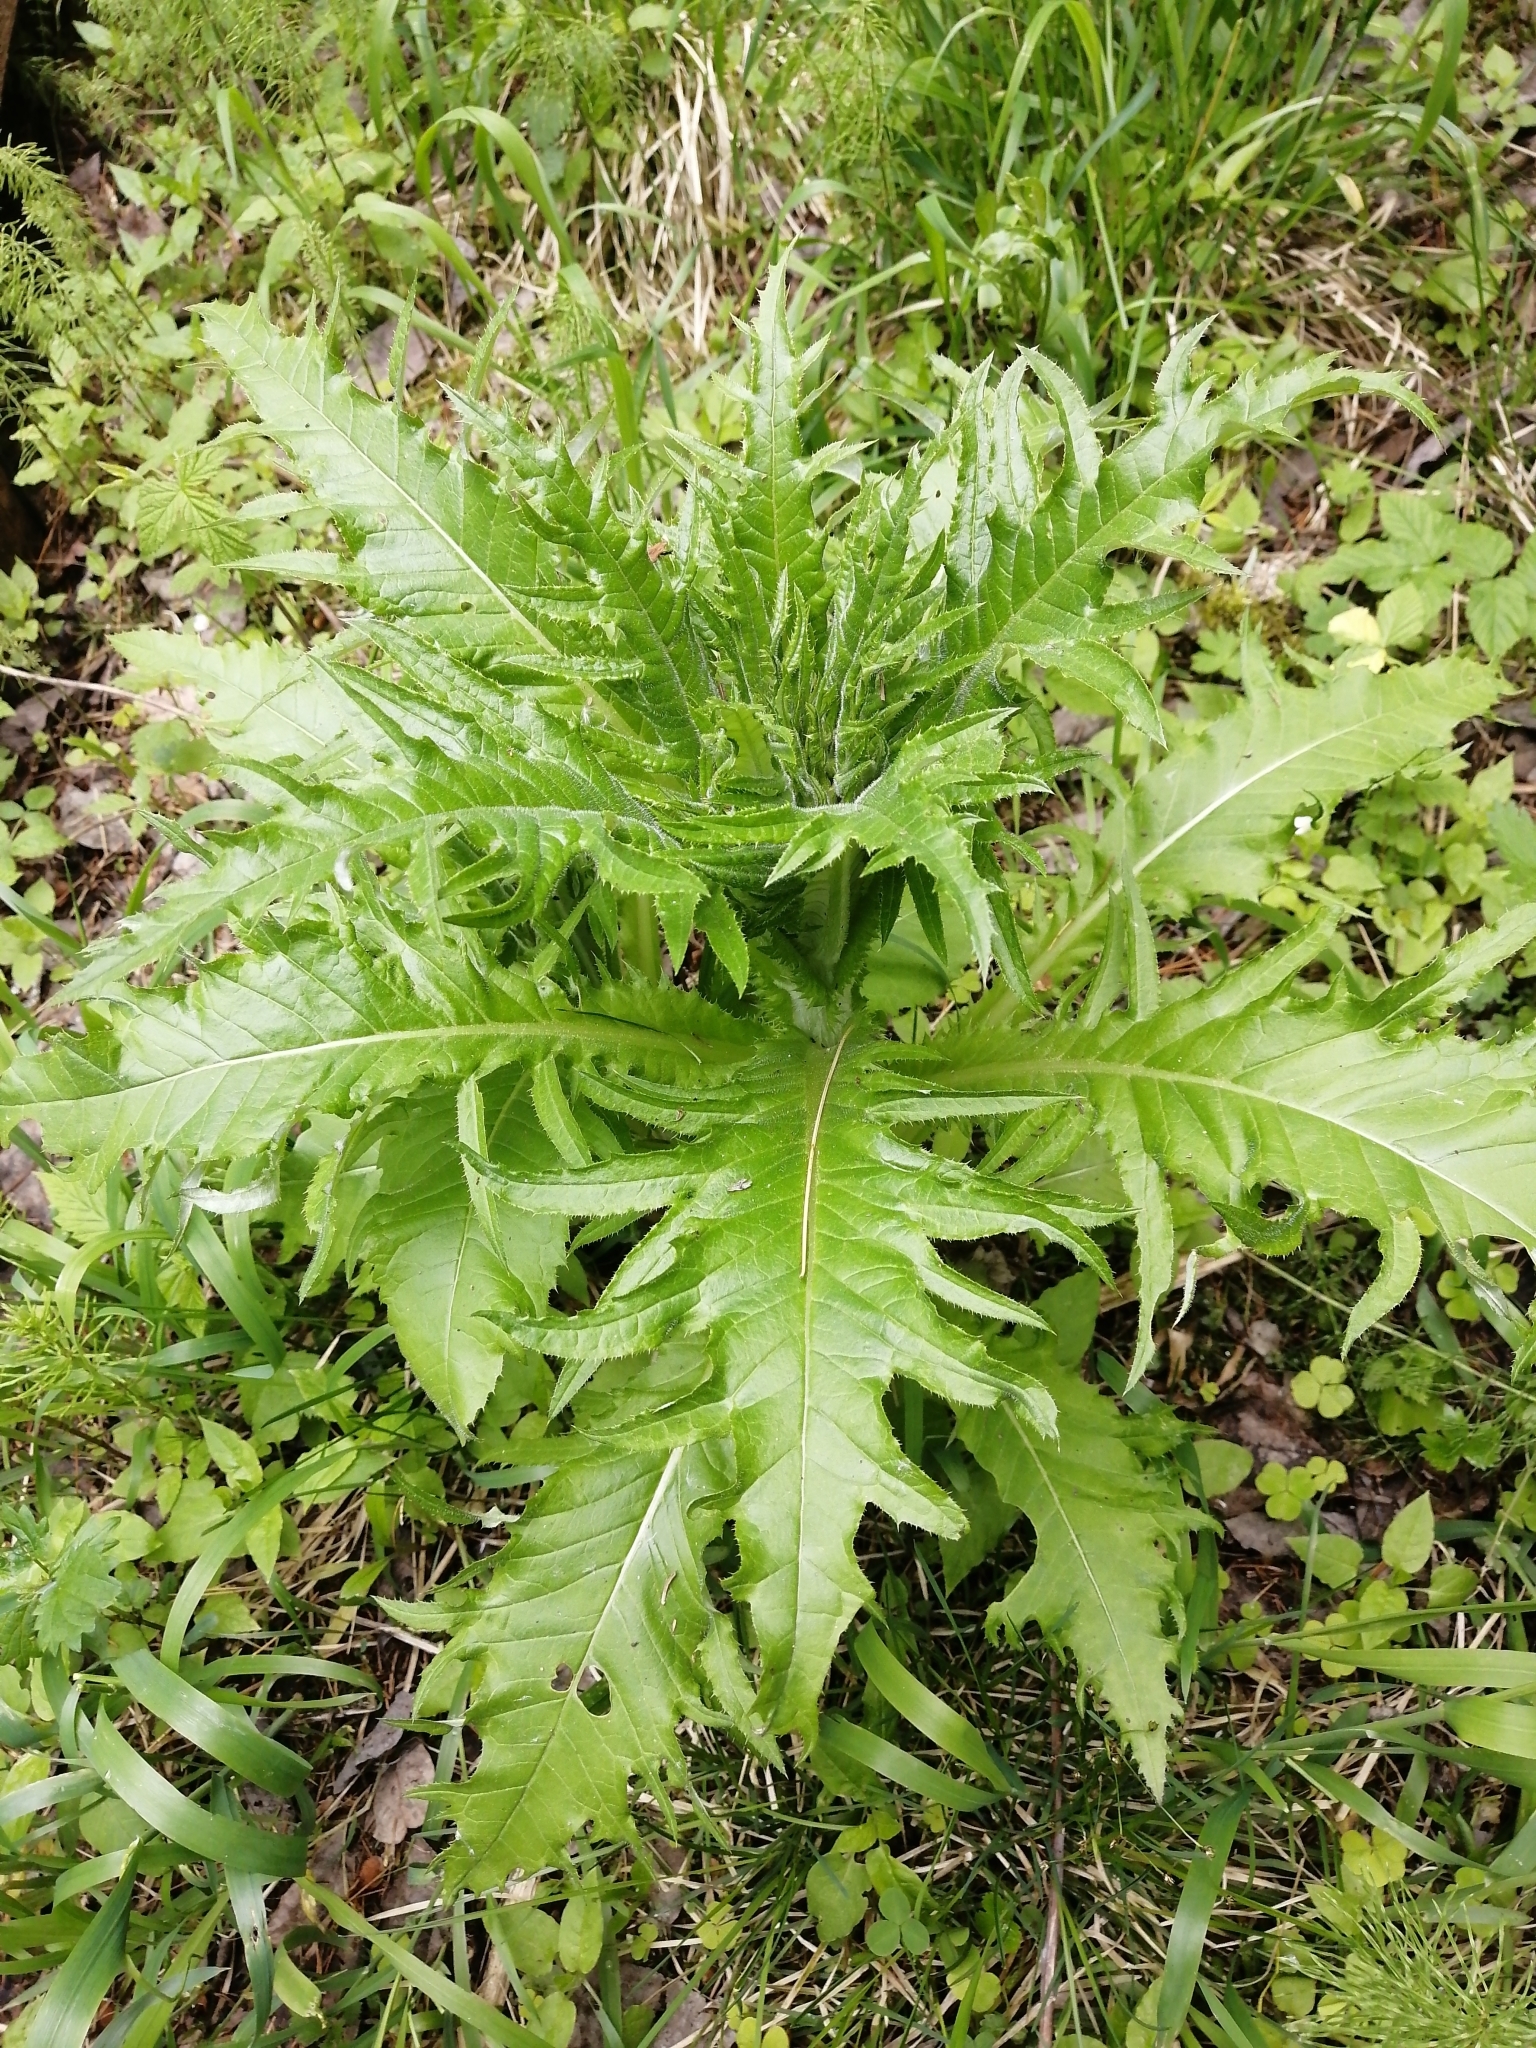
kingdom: Plantae
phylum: Tracheophyta
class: Magnoliopsida
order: Asterales
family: Asteraceae
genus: Cirsium
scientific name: Cirsium heterophyllum
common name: Melancholy thistle
